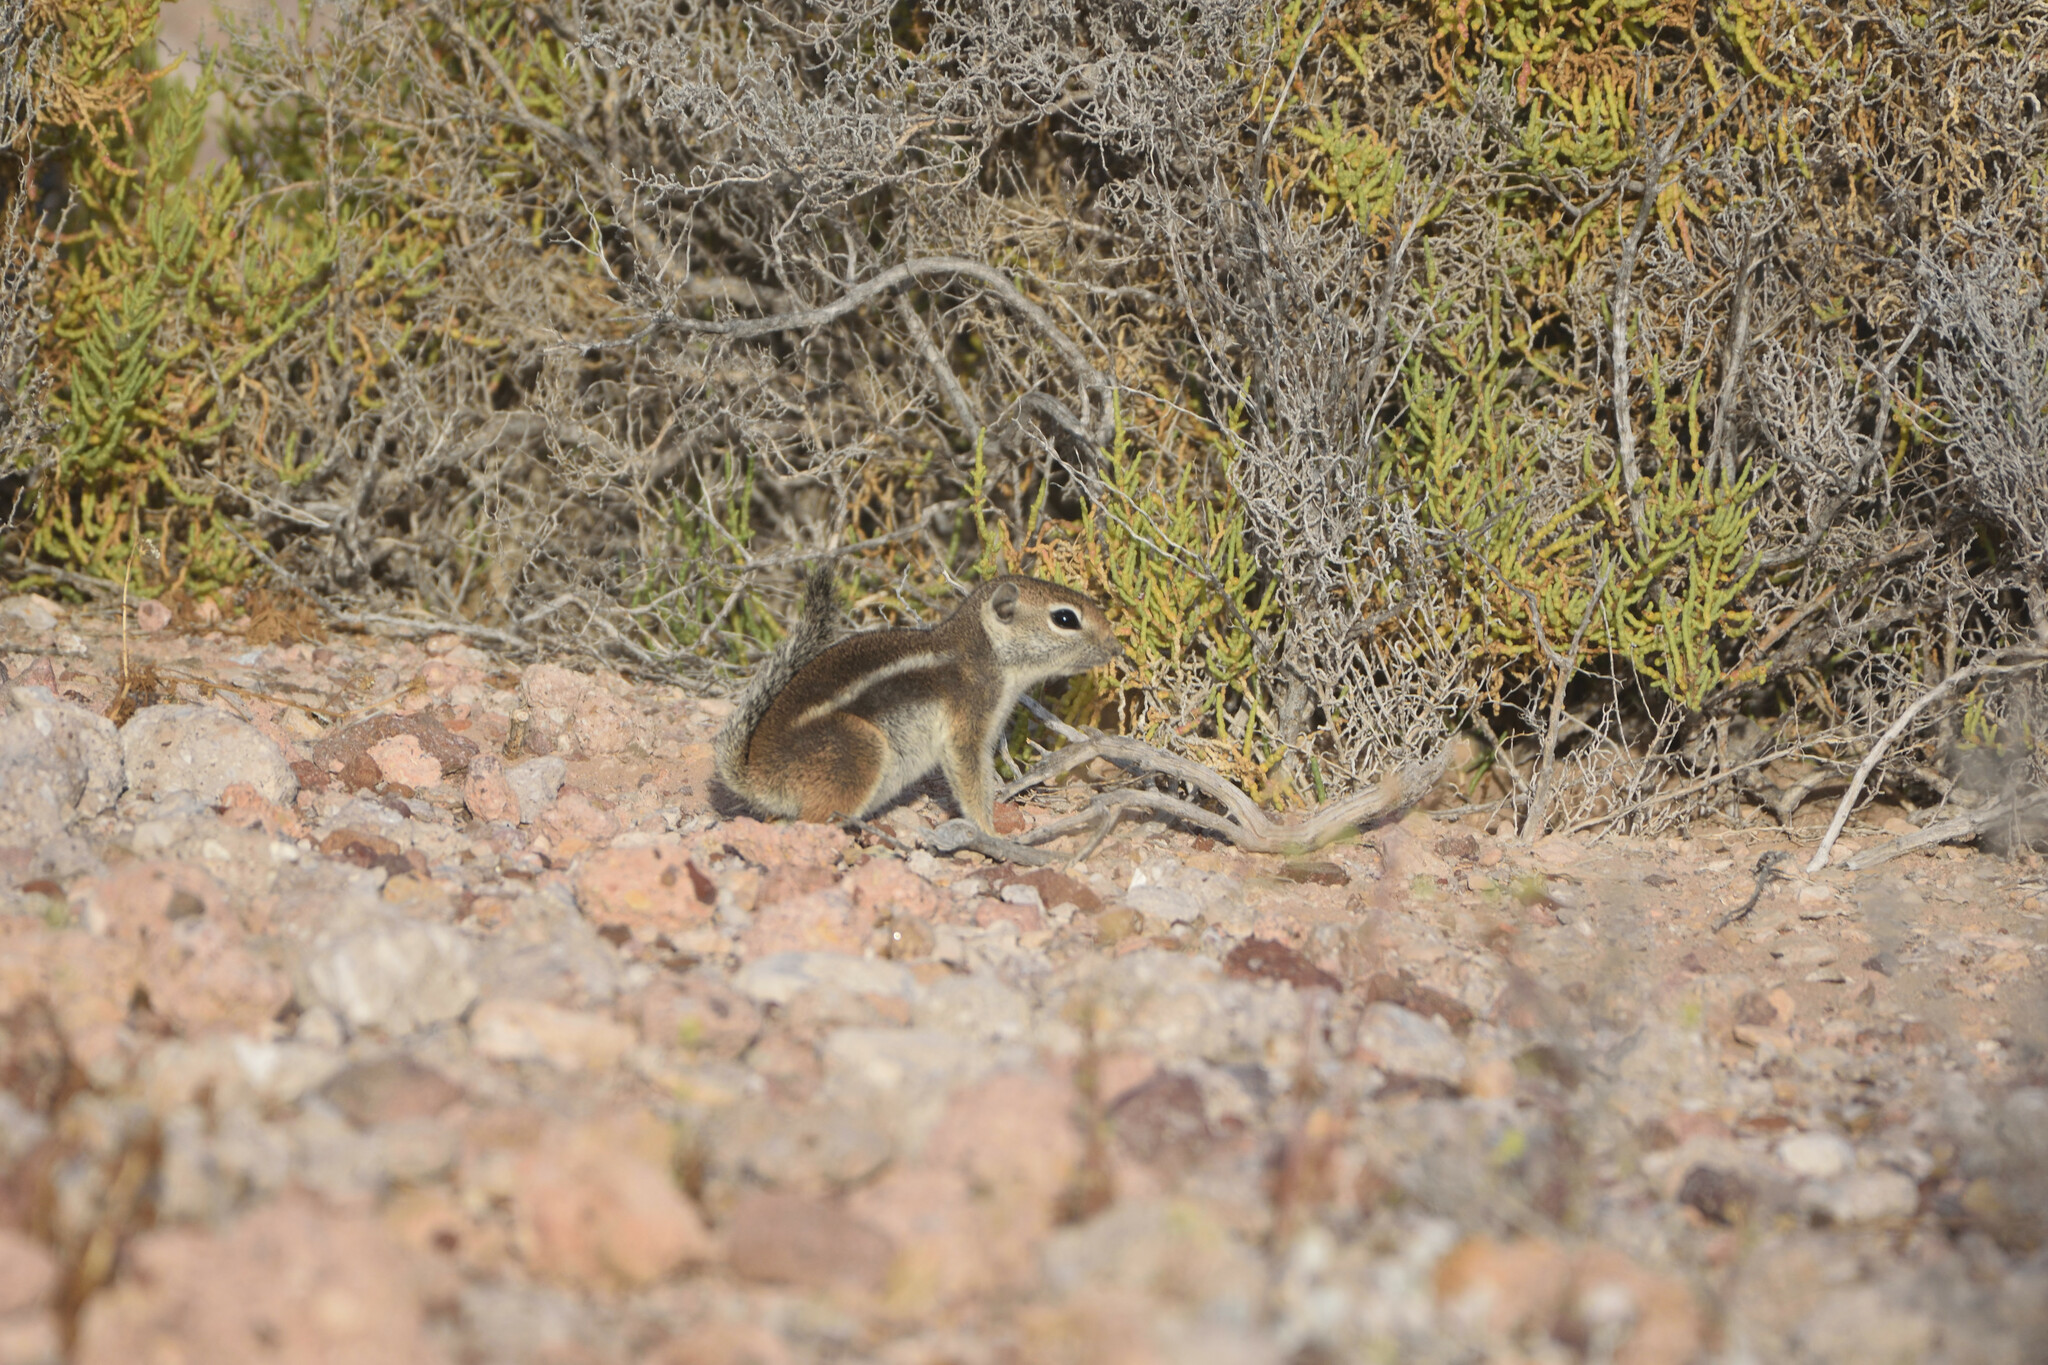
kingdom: Animalia
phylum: Chordata
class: Mammalia
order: Rodentia
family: Sciuridae
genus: Ammospermophilus
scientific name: Ammospermophilus leucurus
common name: White-tailed antelope squirrel
